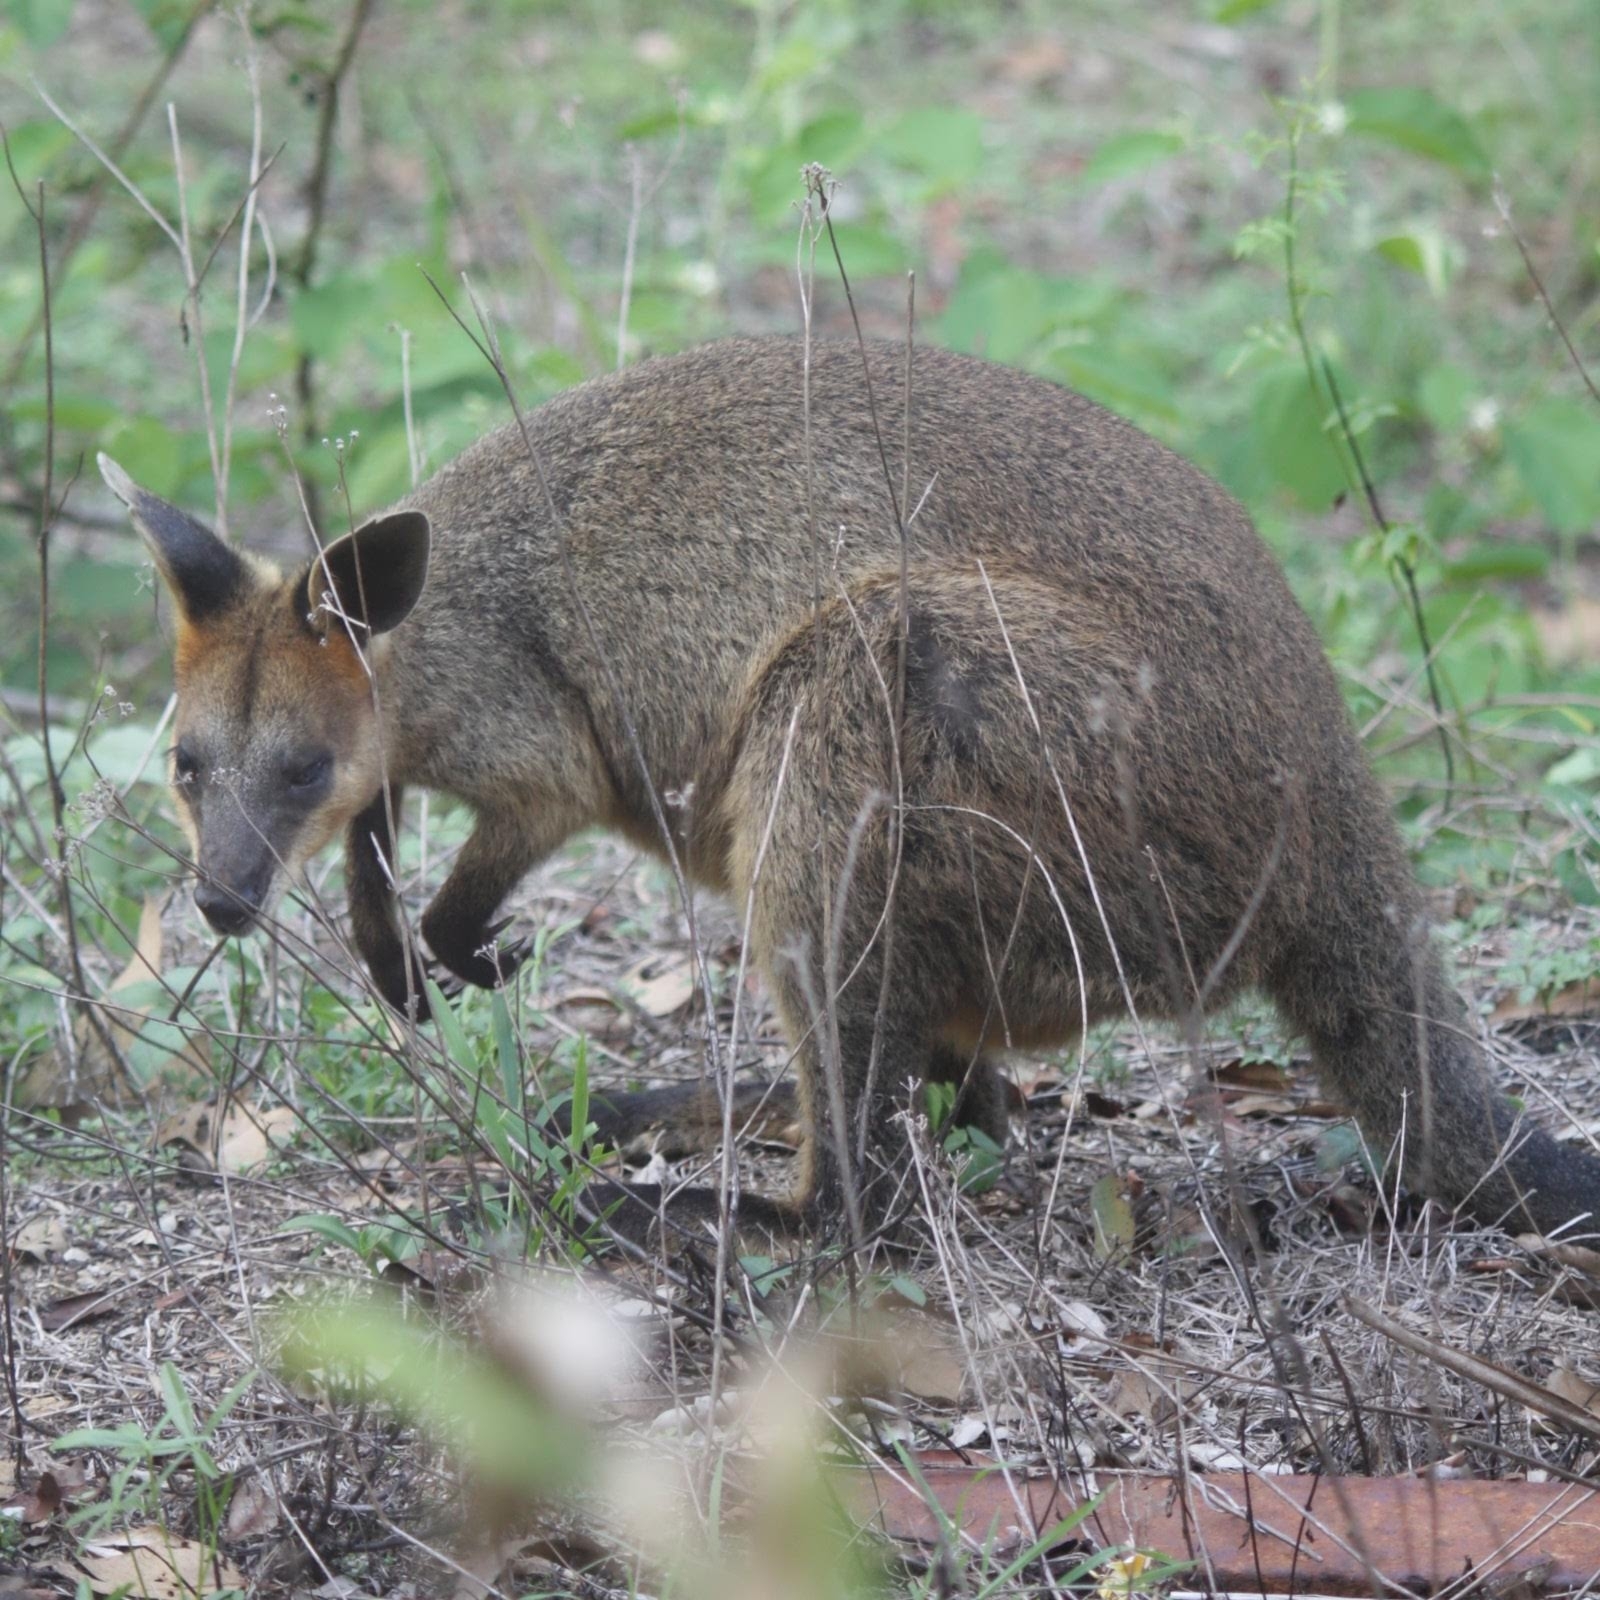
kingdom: Animalia
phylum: Chordata
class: Mammalia
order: Diprotodontia
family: Macropodidae
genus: Wallabia
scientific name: Wallabia bicolor
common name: Swamp wallaby
